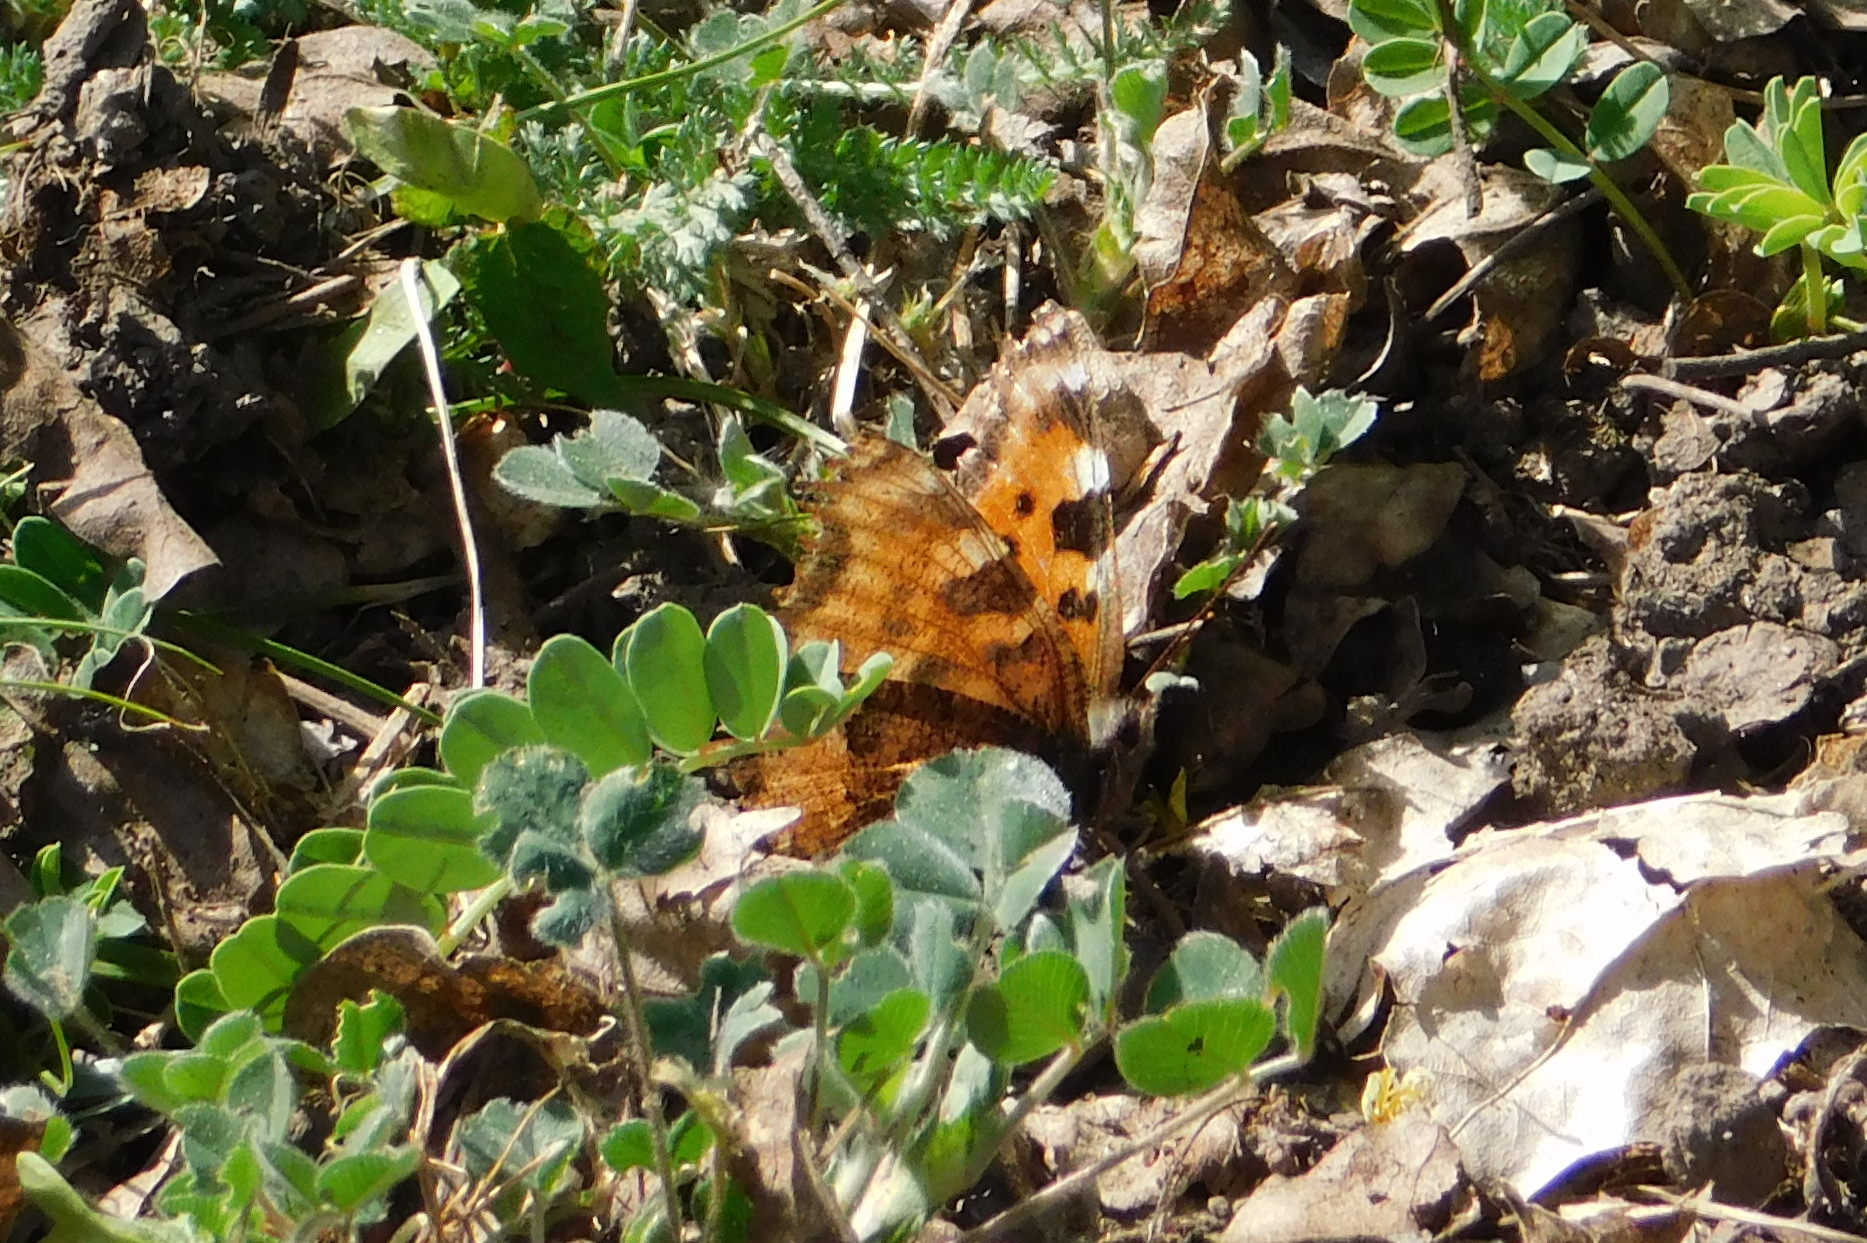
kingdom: Animalia
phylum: Arthropoda
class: Insecta
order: Lepidoptera
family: Nymphalidae
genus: Nymphalis
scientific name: Nymphalis polychloros
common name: Large tortoiseshell
